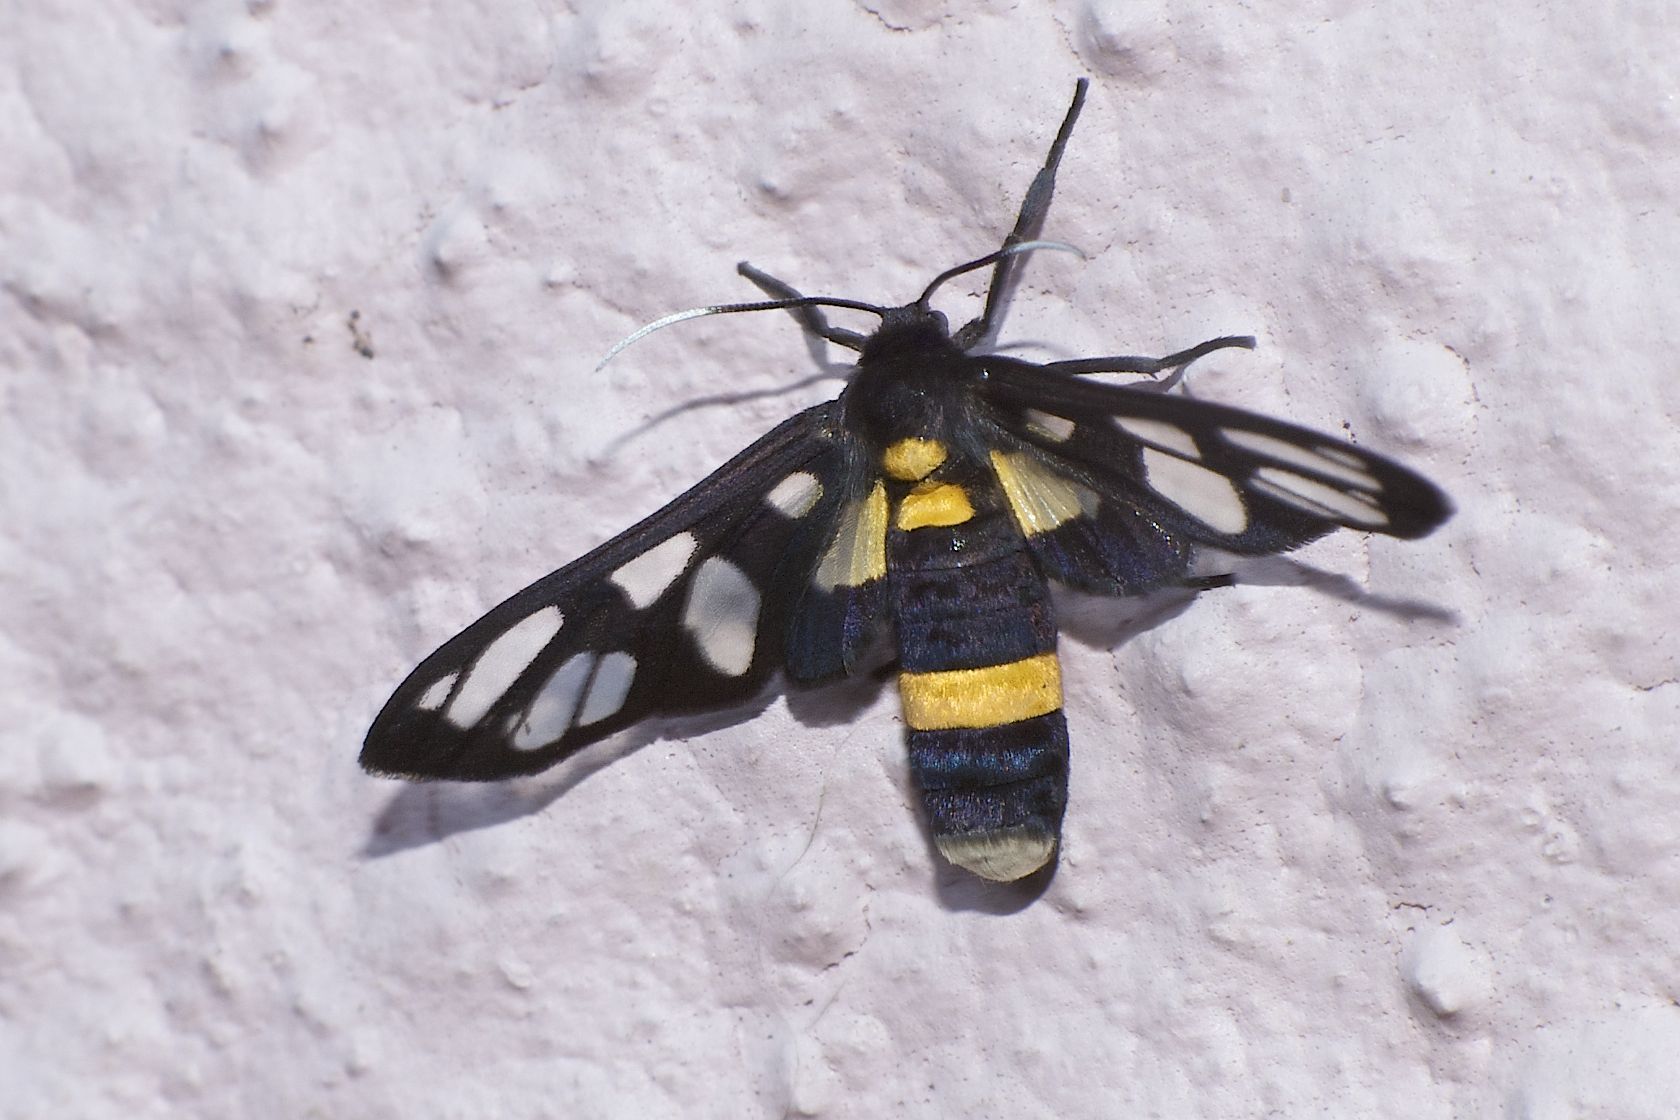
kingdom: Animalia
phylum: Arthropoda
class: Insecta
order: Lepidoptera
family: Erebidae
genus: Amata
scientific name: Amata sperbius
